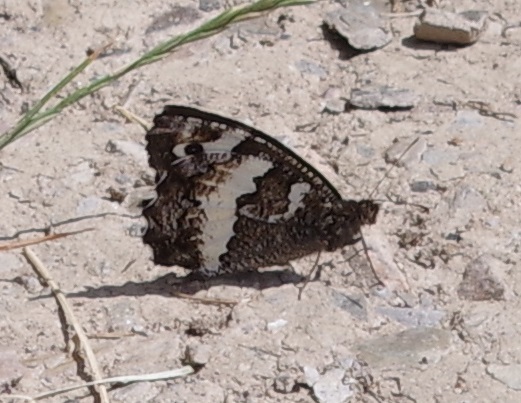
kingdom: Animalia
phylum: Arthropoda
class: Insecta
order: Lepidoptera
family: Lycaenidae
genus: Loweia
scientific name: Loweia tityrus
